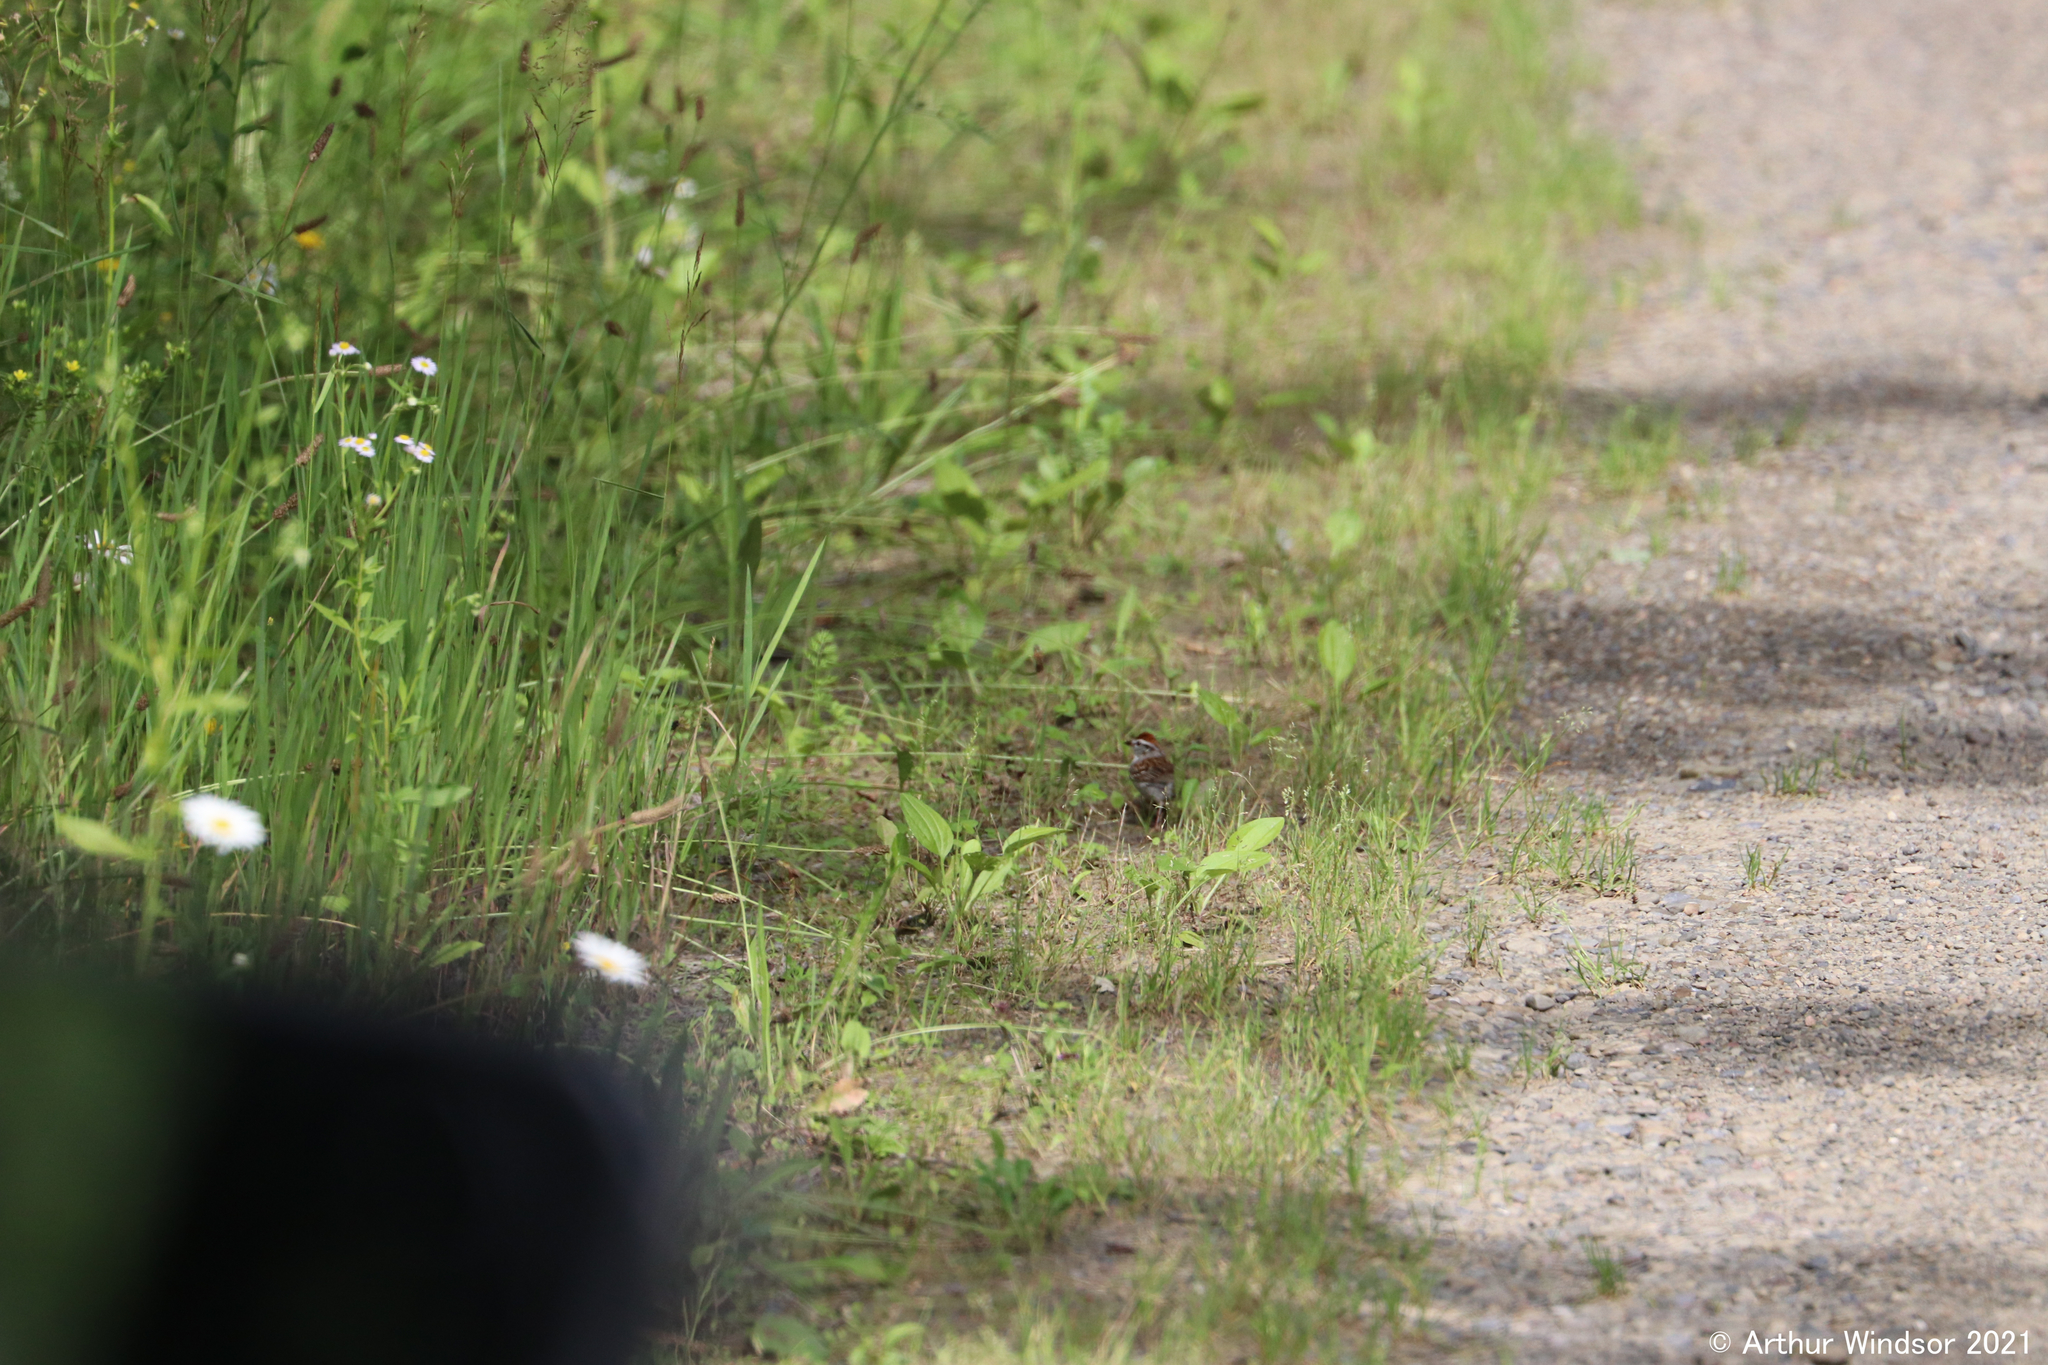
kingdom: Animalia
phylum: Chordata
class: Aves
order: Passeriformes
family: Passerellidae
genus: Spizella
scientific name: Spizella passerina
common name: Chipping sparrow
